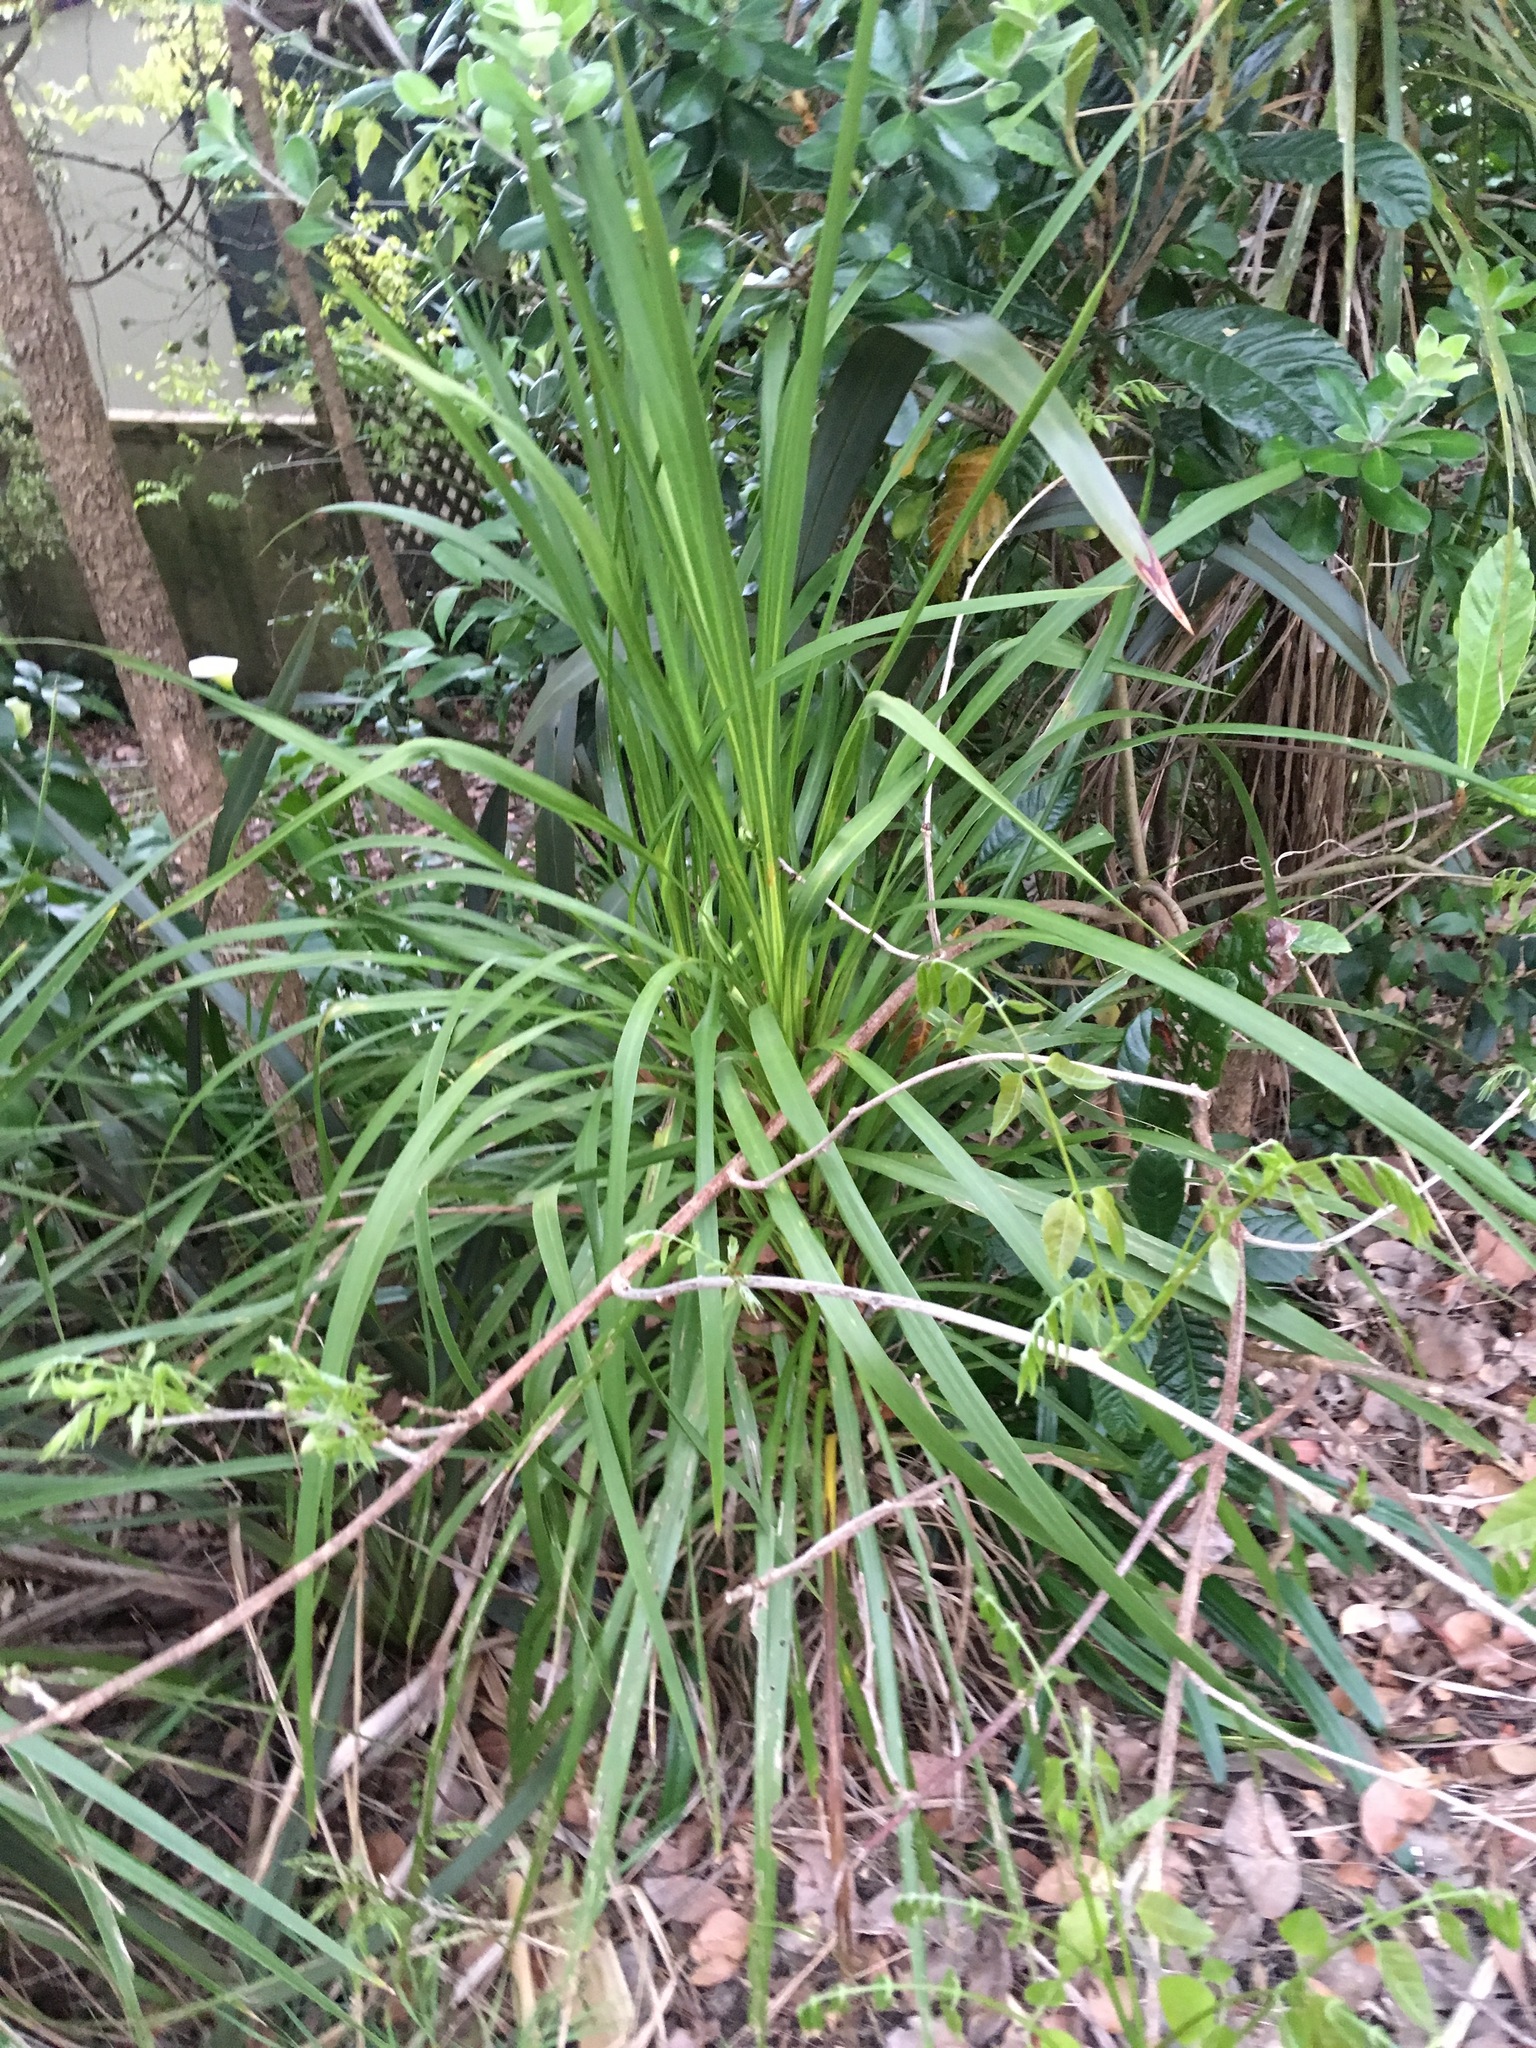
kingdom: Plantae
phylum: Tracheophyta
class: Liliopsida
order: Asparagales
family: Asparagaceae
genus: Cordyline
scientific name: Cordyline australis
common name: Cabbage-palm
